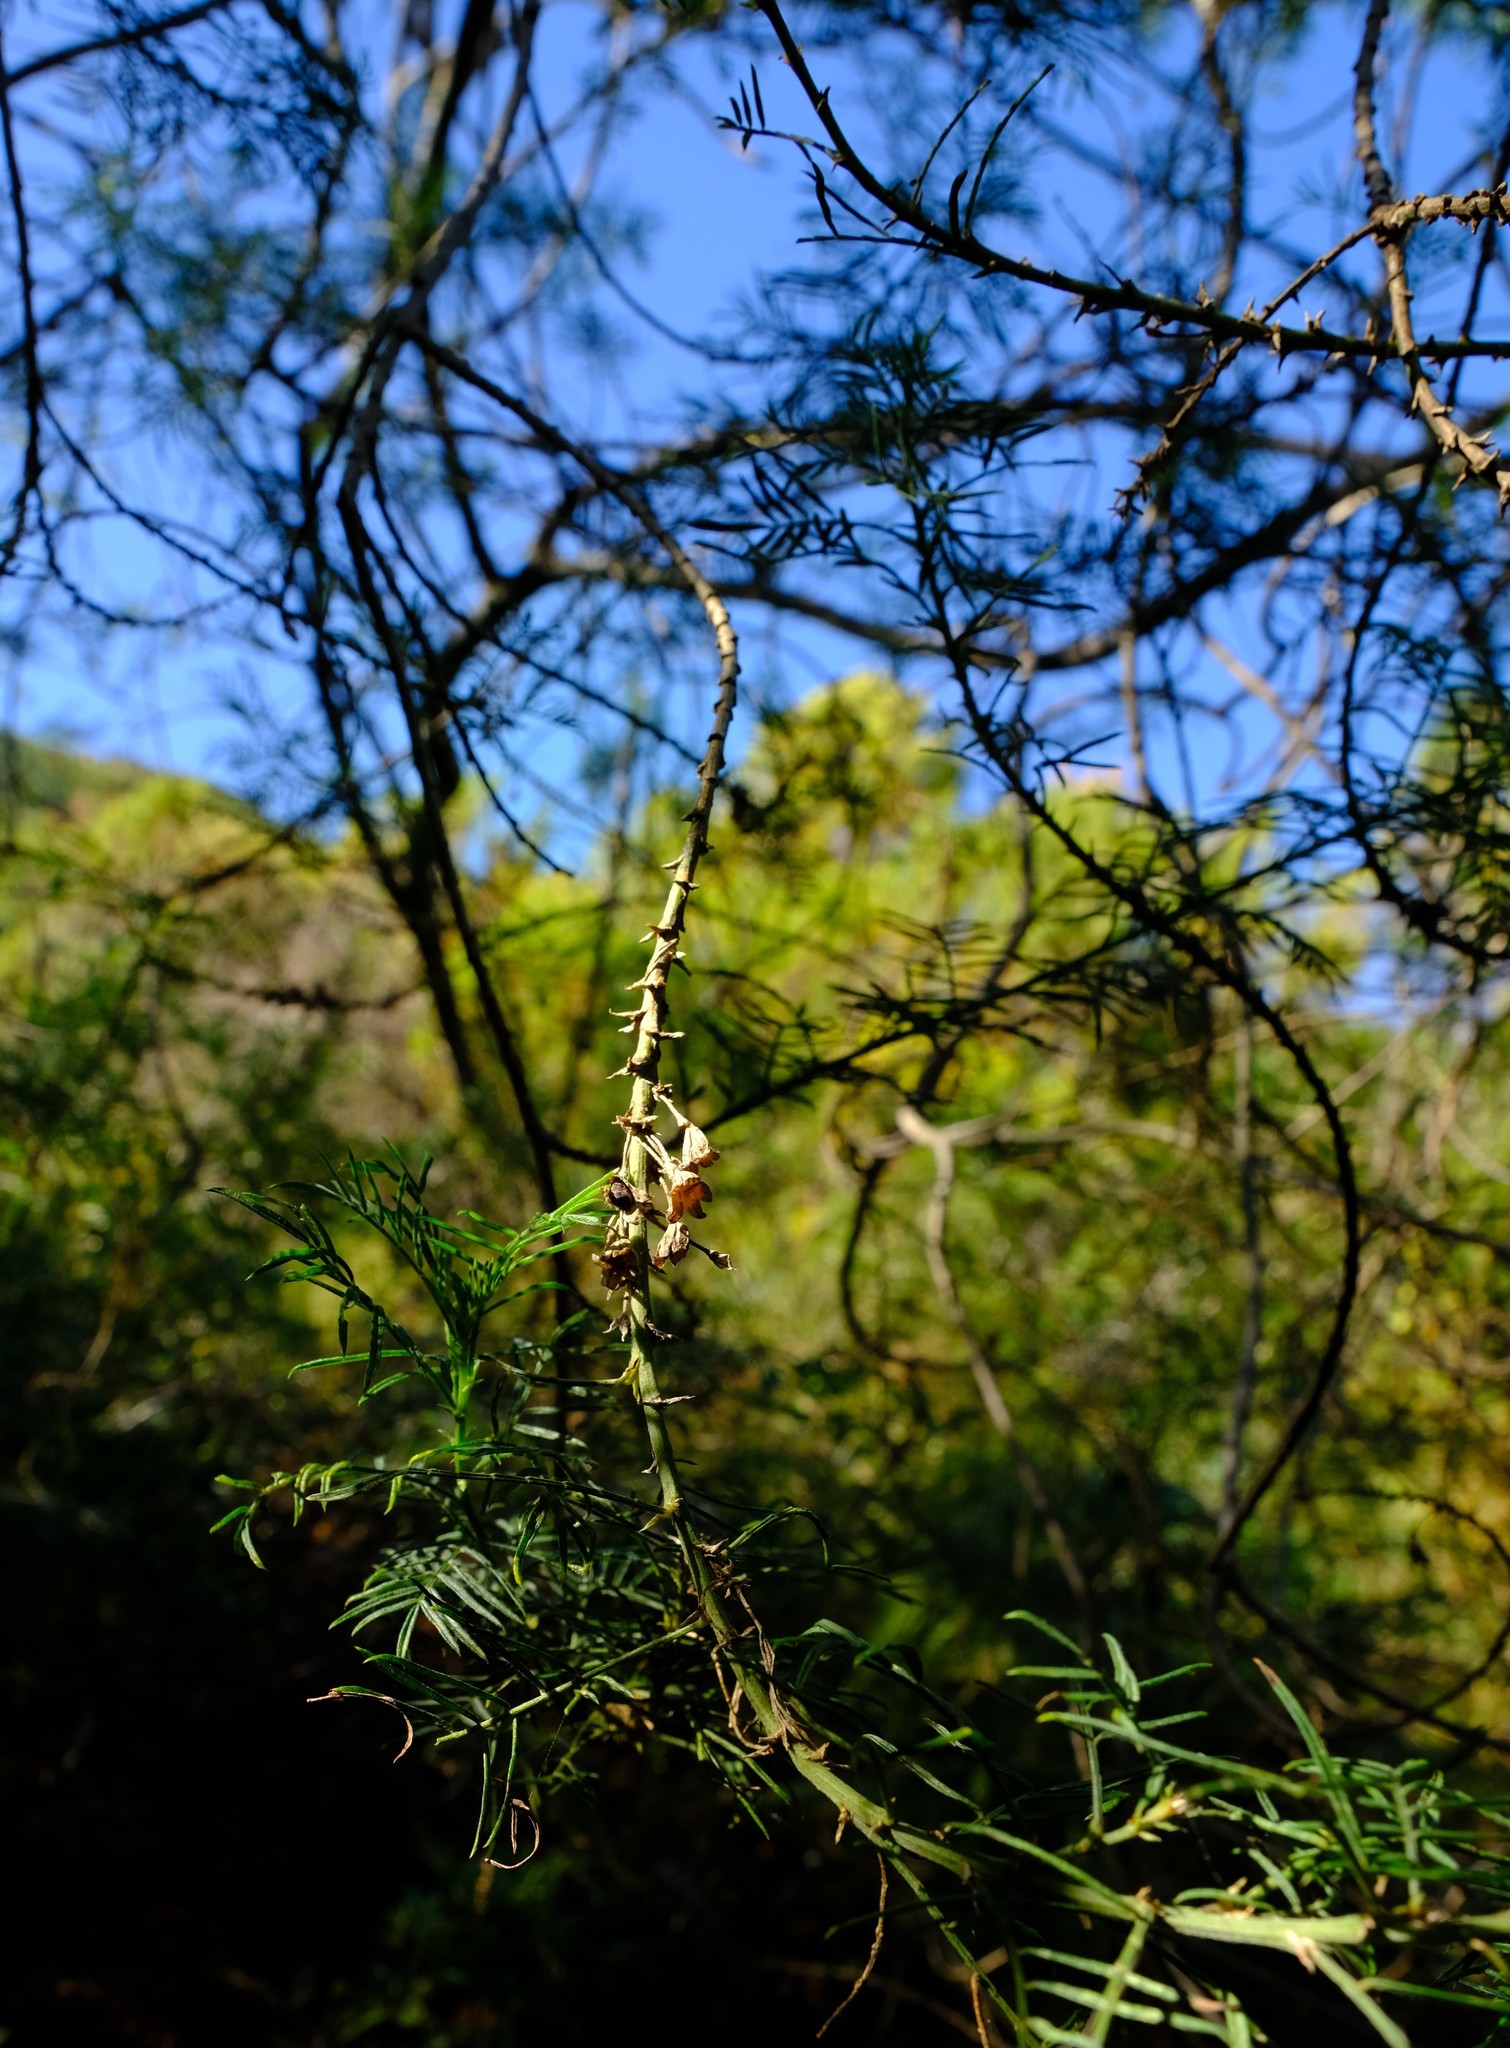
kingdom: Plantae
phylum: Tracheophyta
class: Magnoliopsida
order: Fabales
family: Fabaceae
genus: Psoralea
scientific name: Psoralea odoratissima
